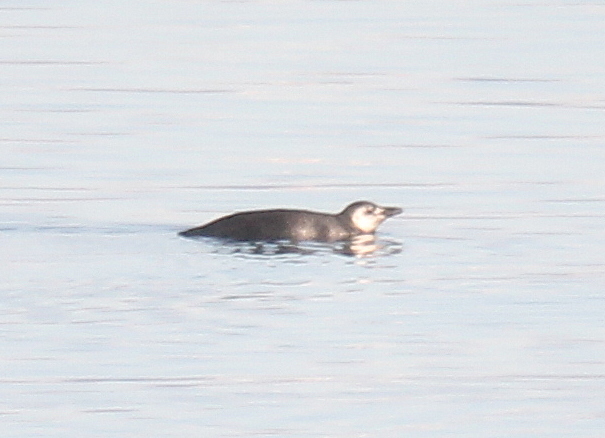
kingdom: Animalia
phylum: Chordata
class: Aves
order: Sphenisciformes
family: Spheniscidae
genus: Spheniscus
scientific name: Spheniscus magellanicus
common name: Magellanic penguin
